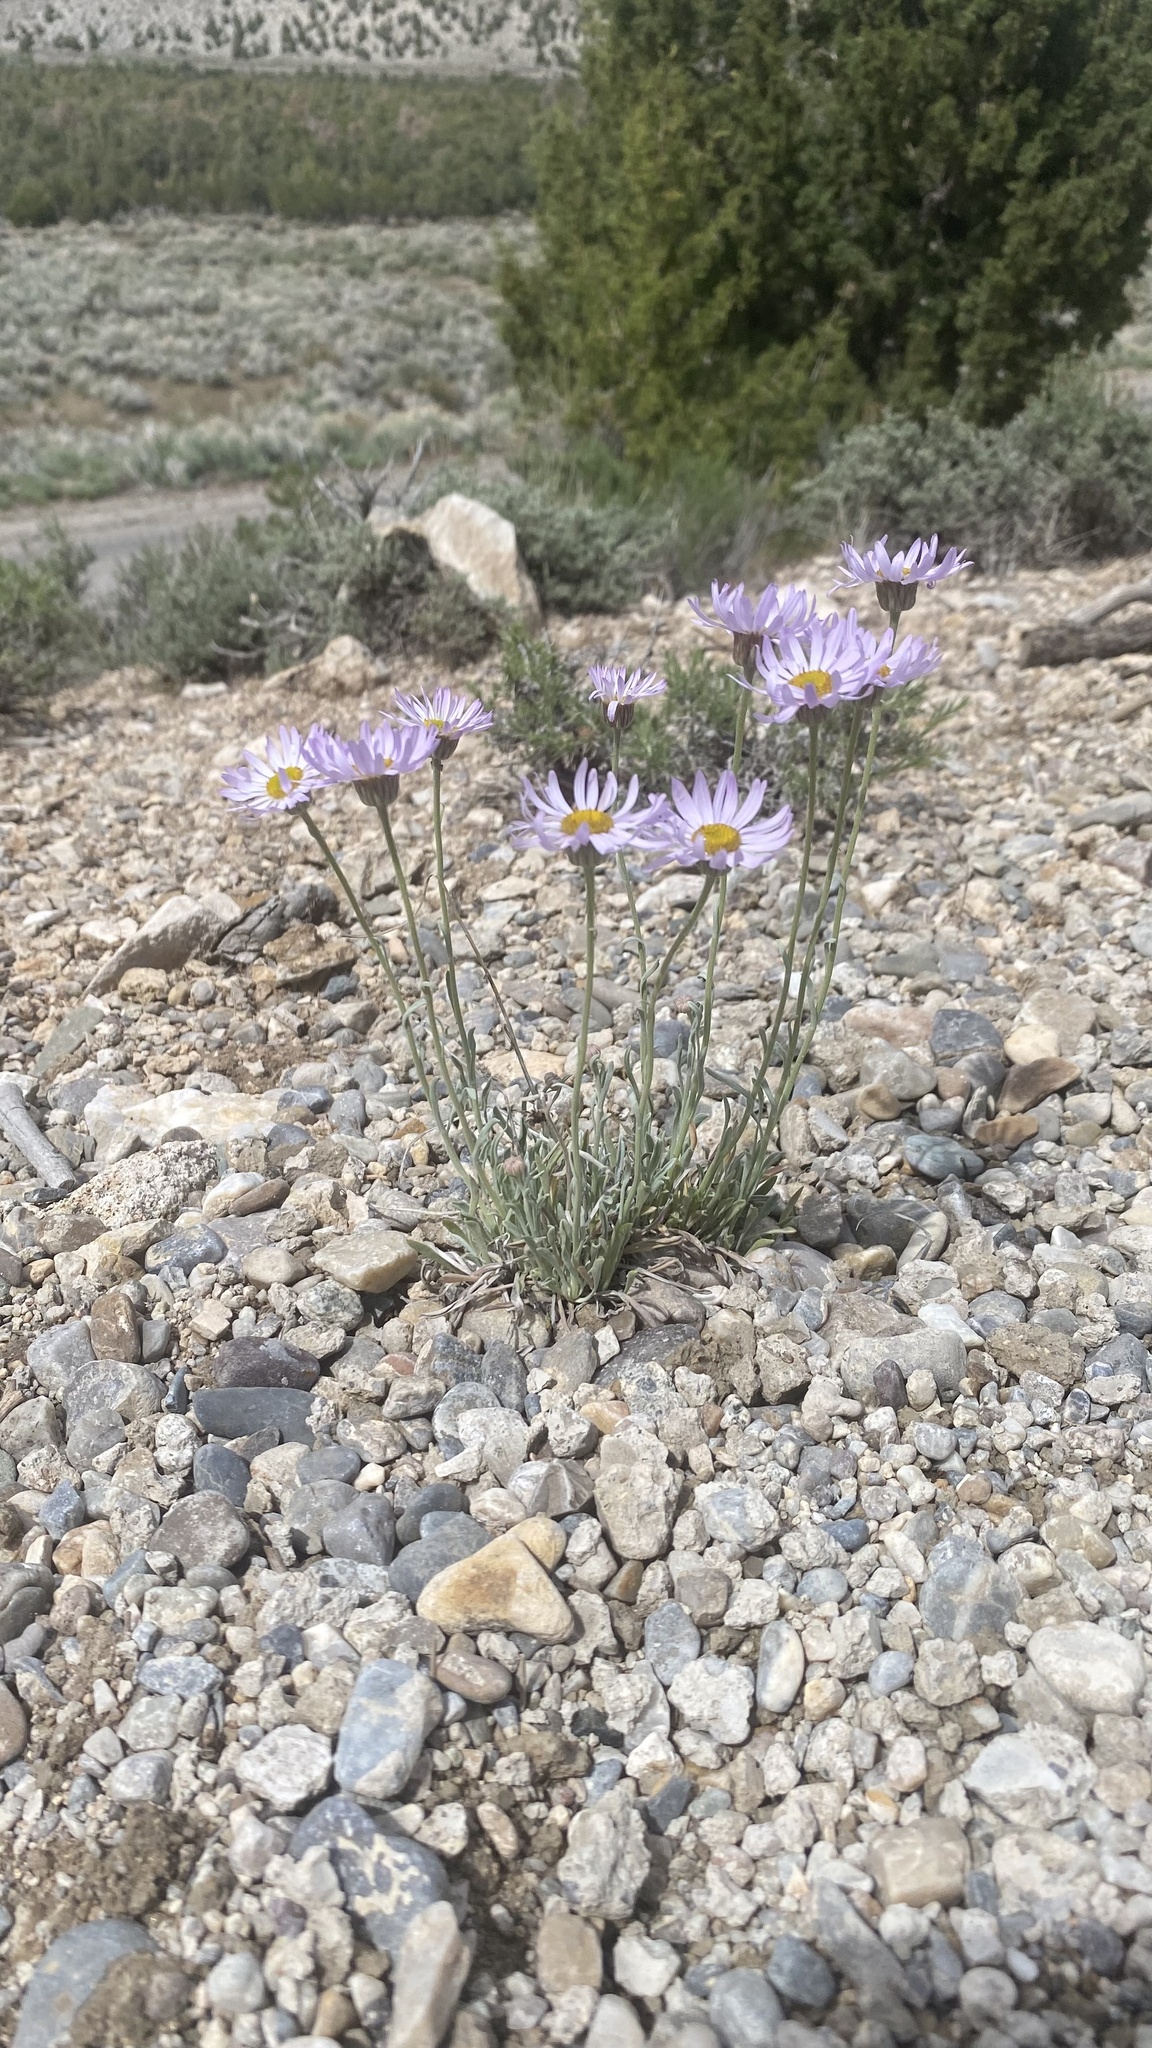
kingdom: Plantae
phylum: Tracheophyta
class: Magnoliopsida
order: Asterales
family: Asteraceae
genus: Erigeron
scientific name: Erigeron divergens
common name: Diffuse fleabane
